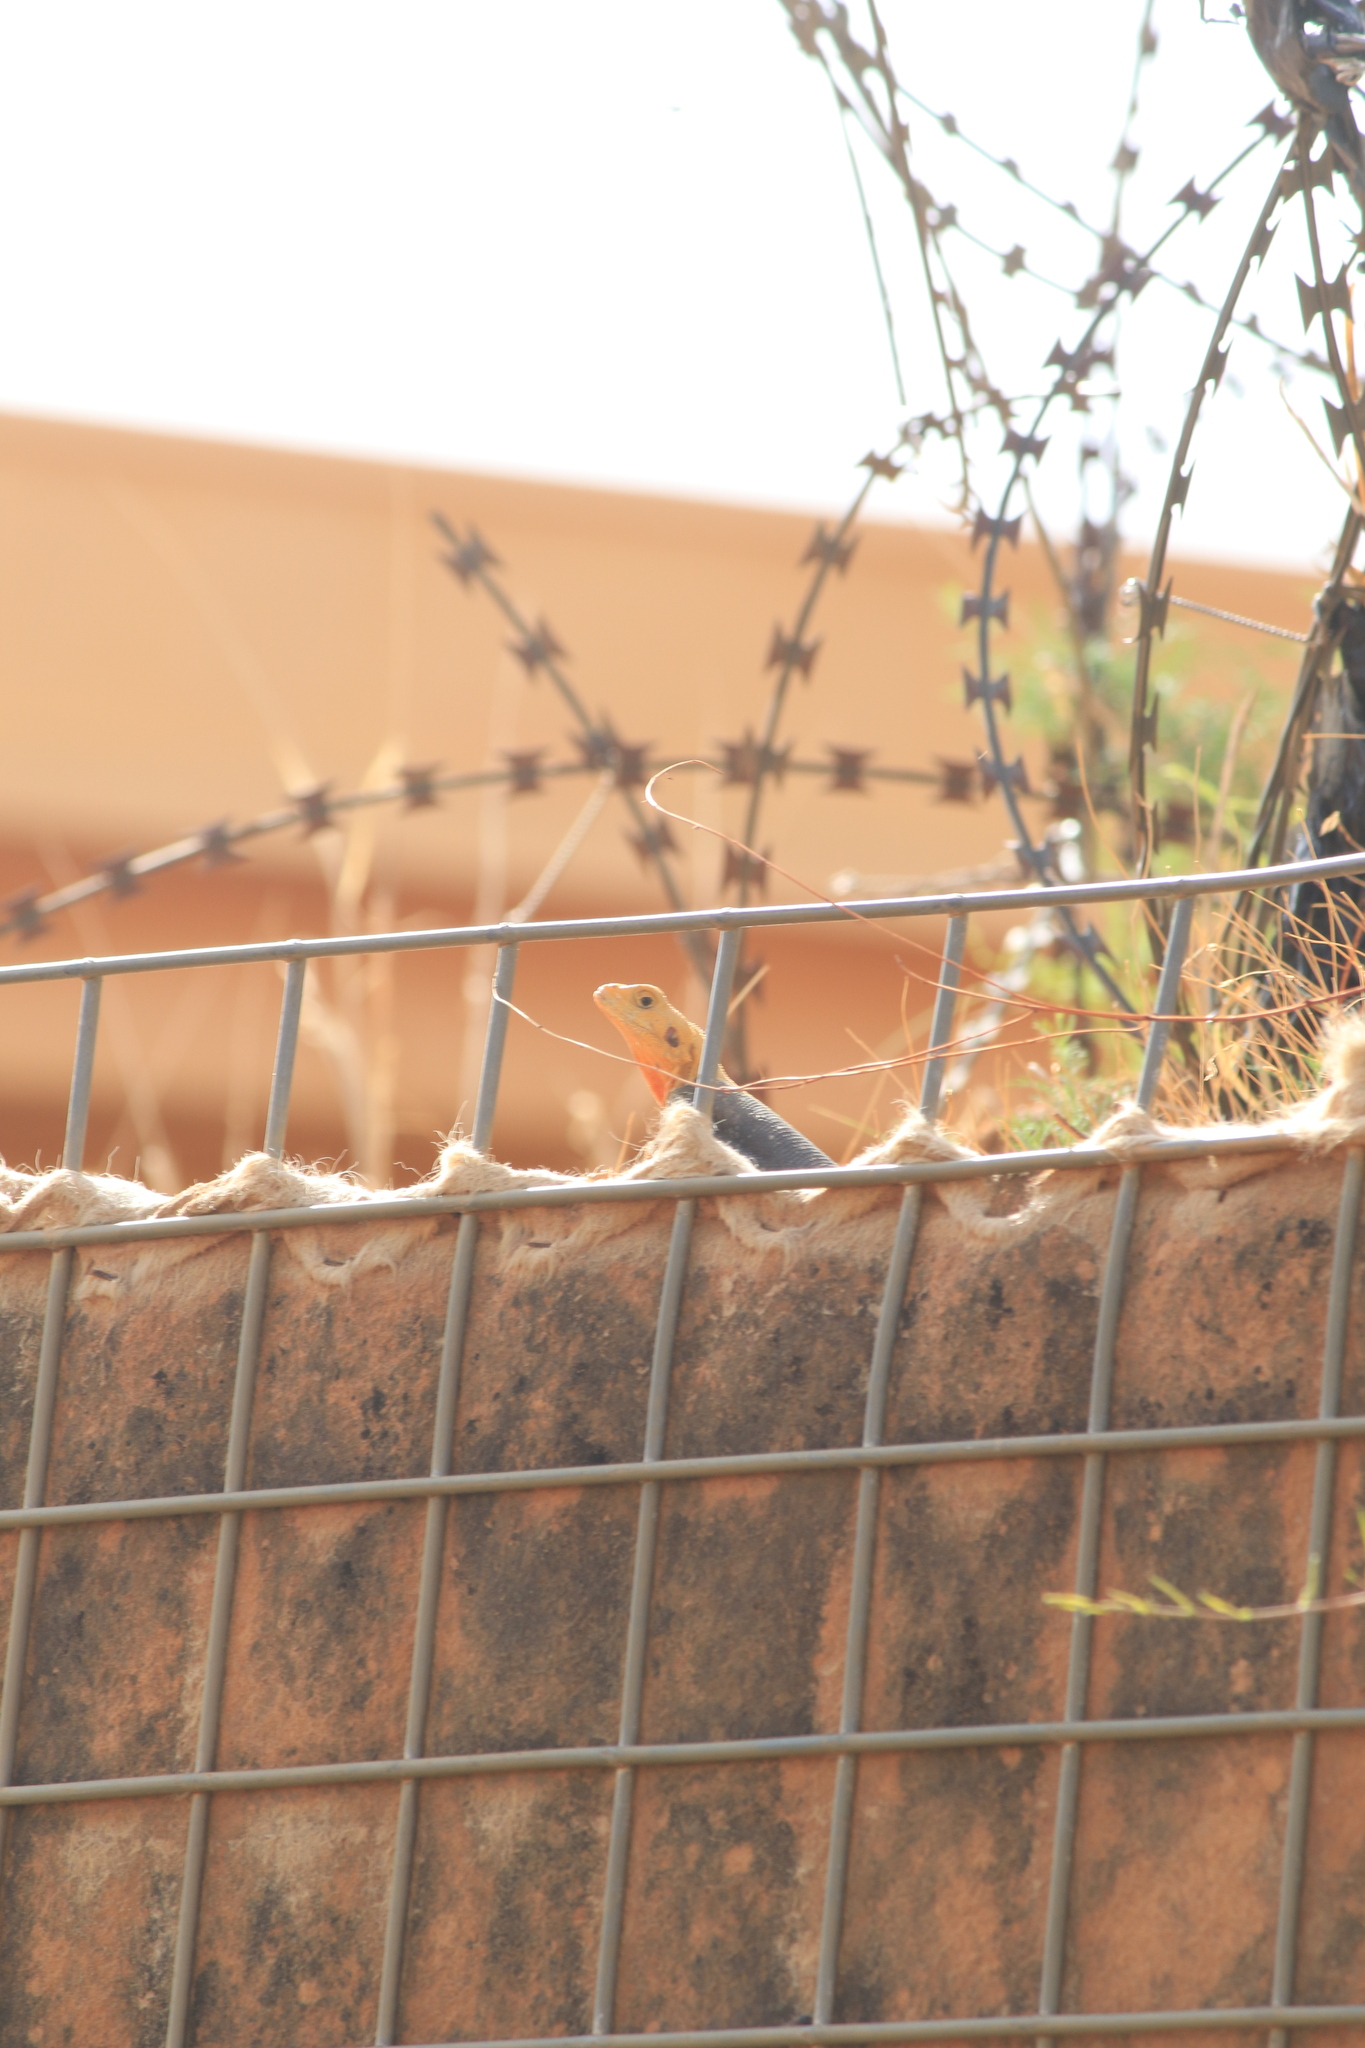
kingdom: Animalia
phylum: Chordata
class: Squamata
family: Agamidae
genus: Agama
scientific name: Agama paragama
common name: False agama
